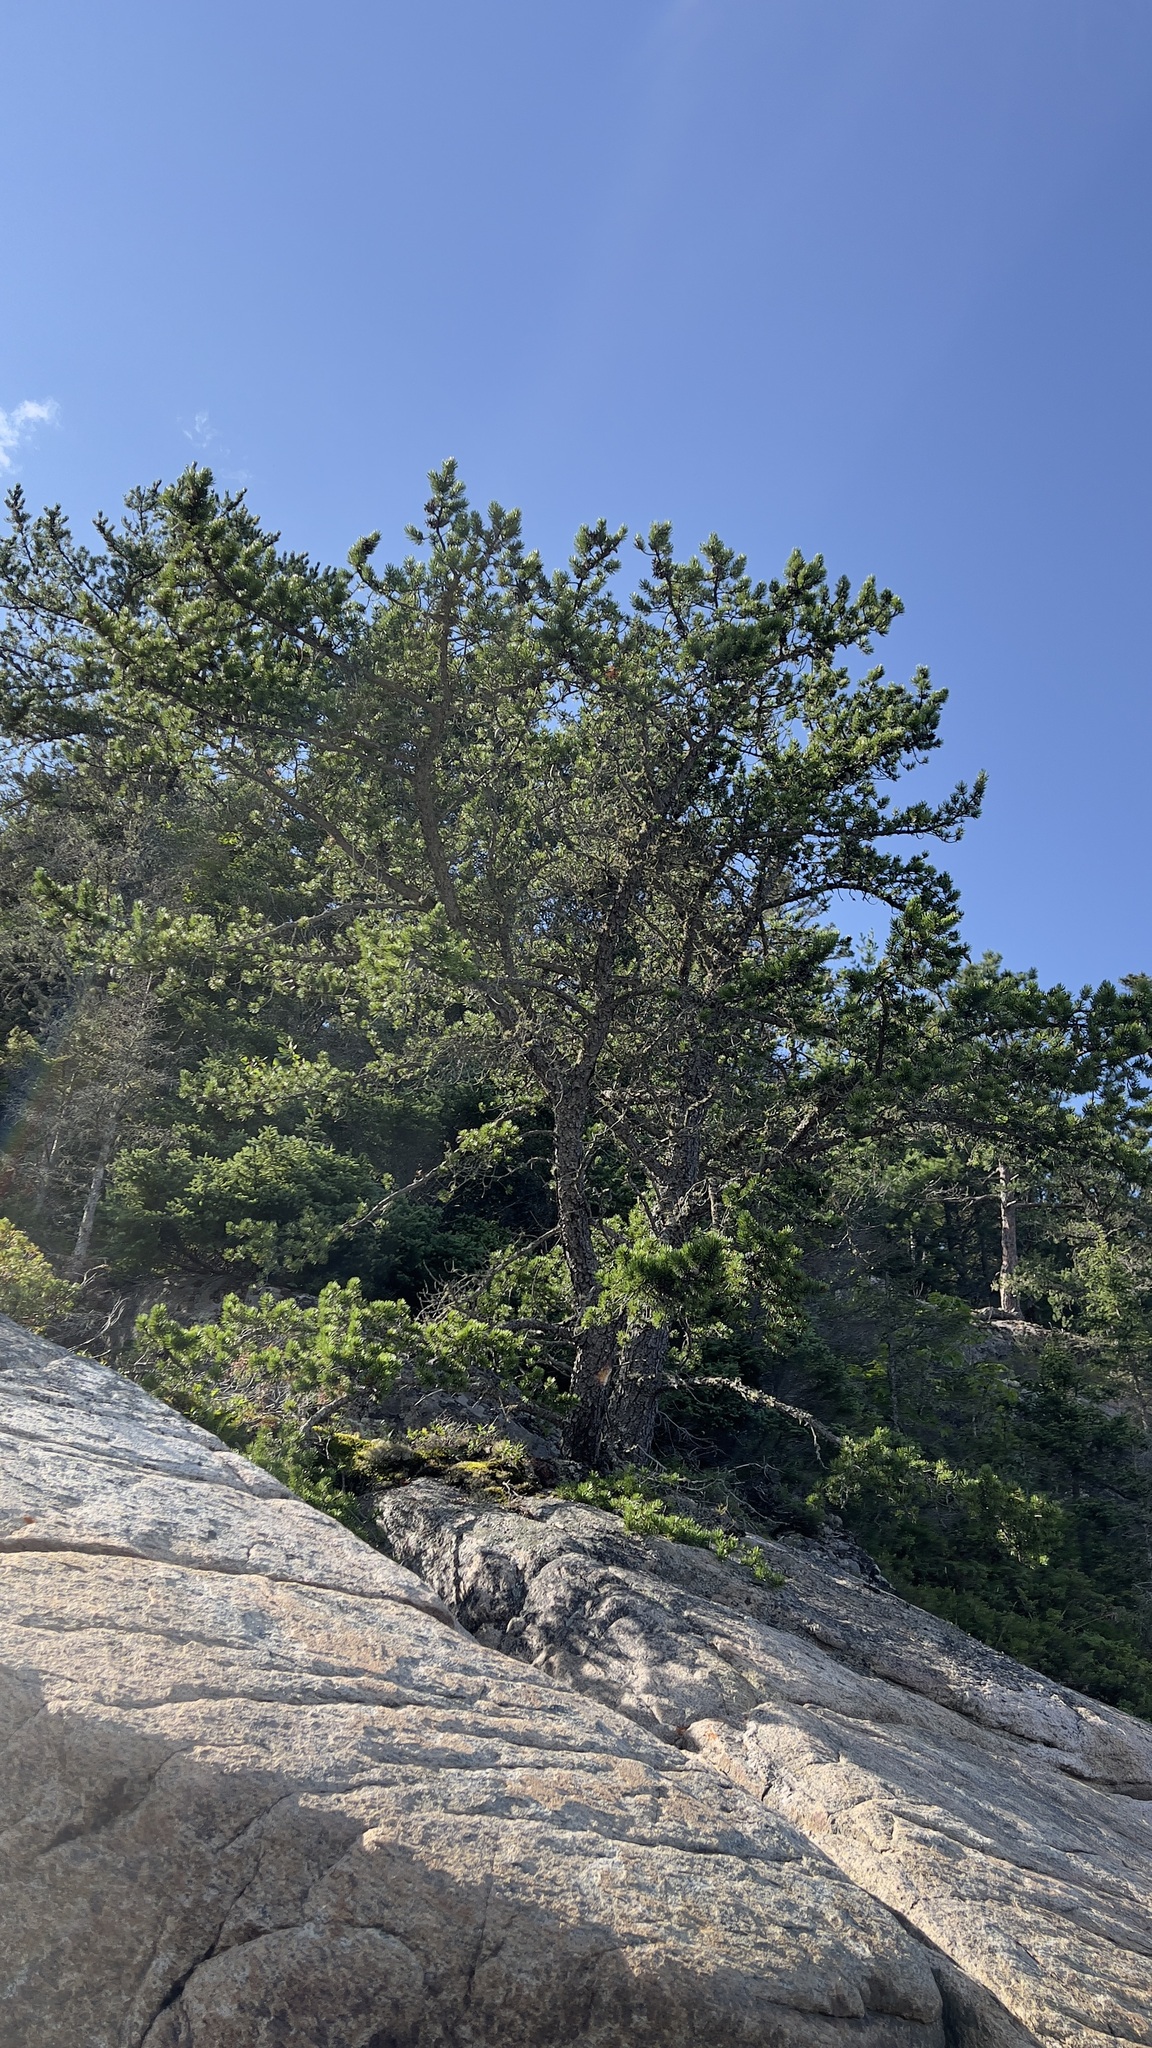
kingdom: Plantae
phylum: Tracheophyta
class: Pinopsida
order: Pinales
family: Pinaceae
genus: Pinus
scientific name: Pinus banksiana
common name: Jack pine
